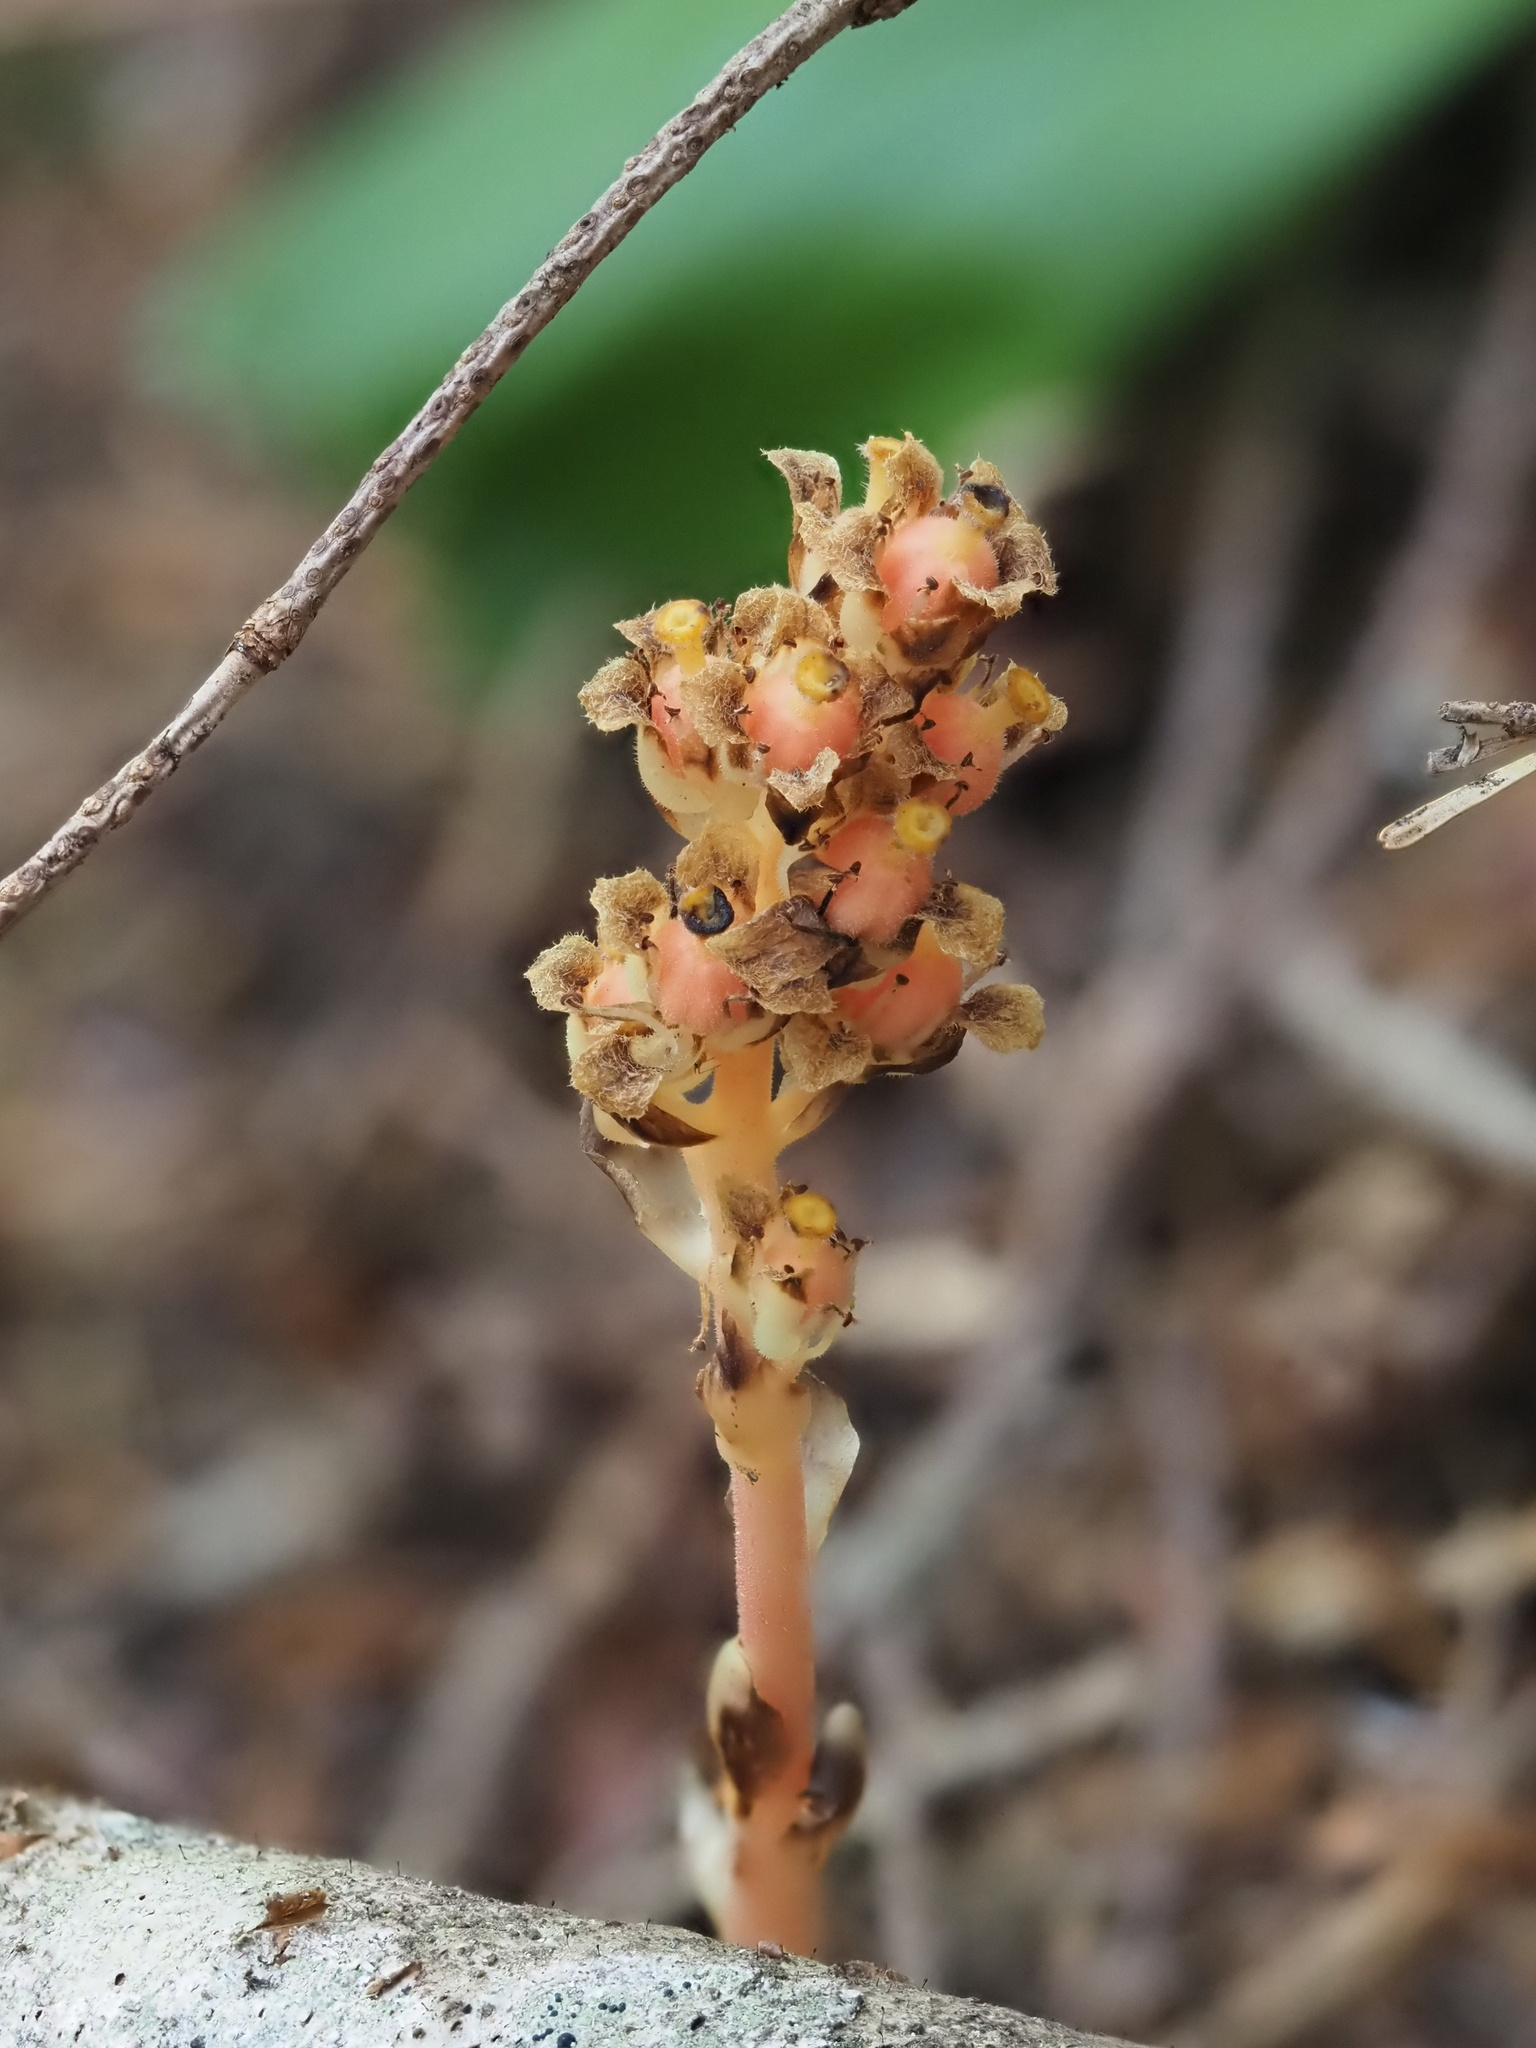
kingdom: Plantae
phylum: Tracheophyta
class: Magnoliopsida
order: Ericales
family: Ericaceae
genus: Hypopitys
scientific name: Hypopitys monotropa
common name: Yellow bird's-nest
